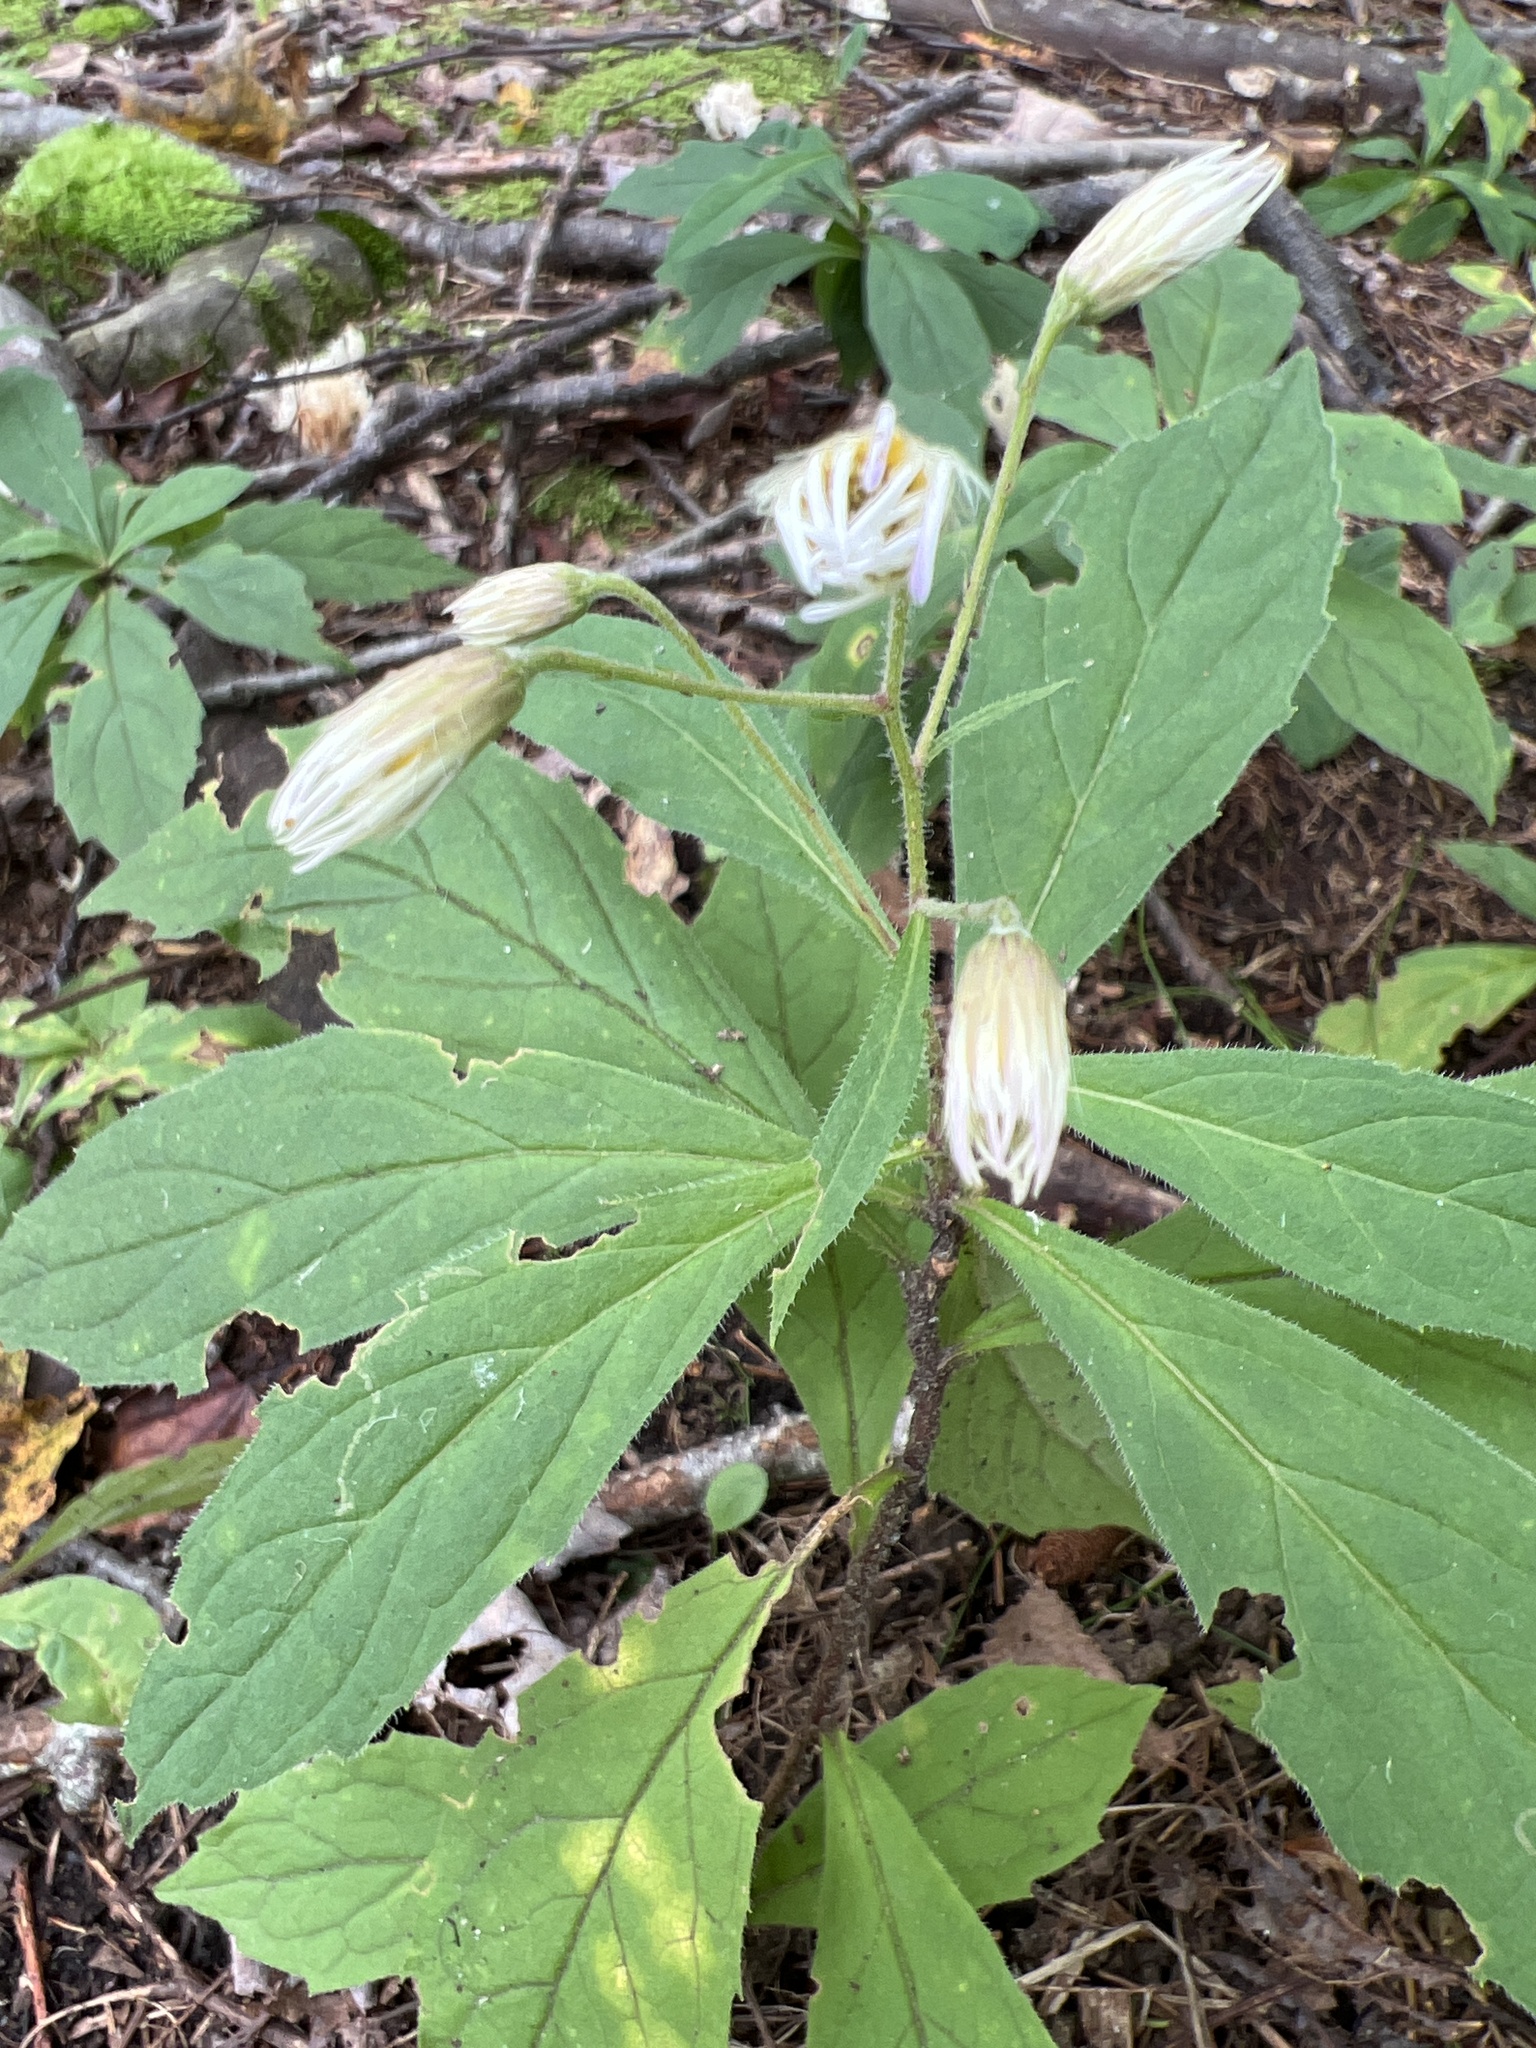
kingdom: Plantae
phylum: Tracheophyta
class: Magnoliopsida
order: Asterales
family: Asteraceae
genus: Oclemena
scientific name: Oclemena acuminata
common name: Mountain aster
